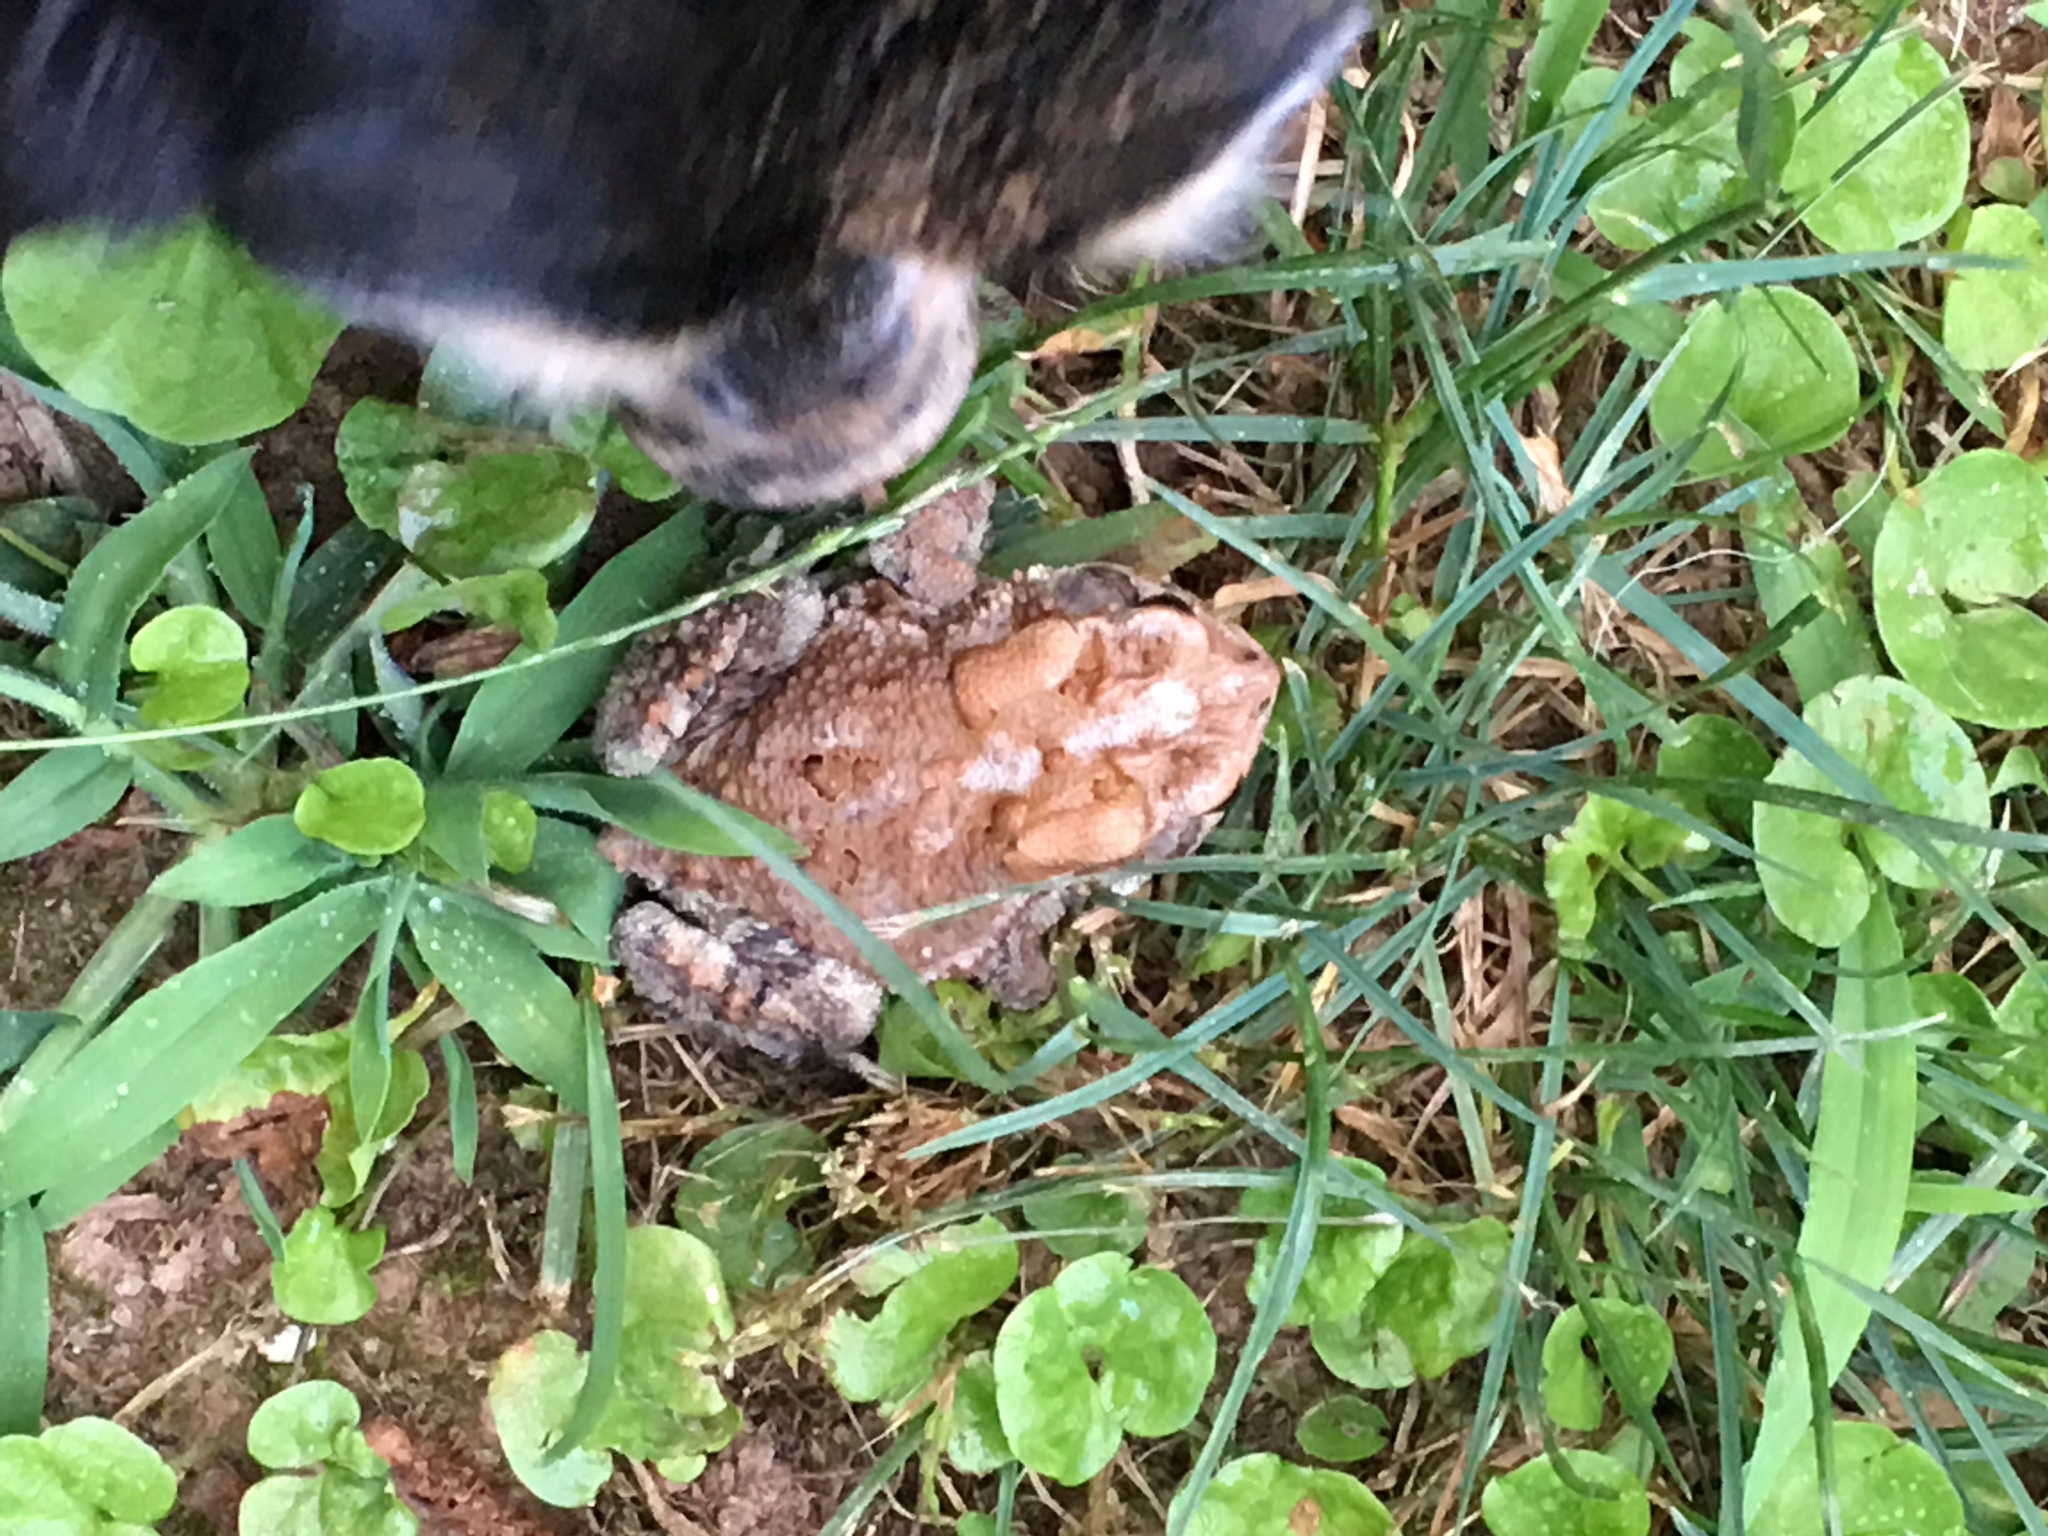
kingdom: Animalia
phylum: Chordata
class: Amphibia
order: Anura
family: Bufonidae
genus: Anaxyrus
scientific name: Anaxyrus terrestris
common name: Southern toad
